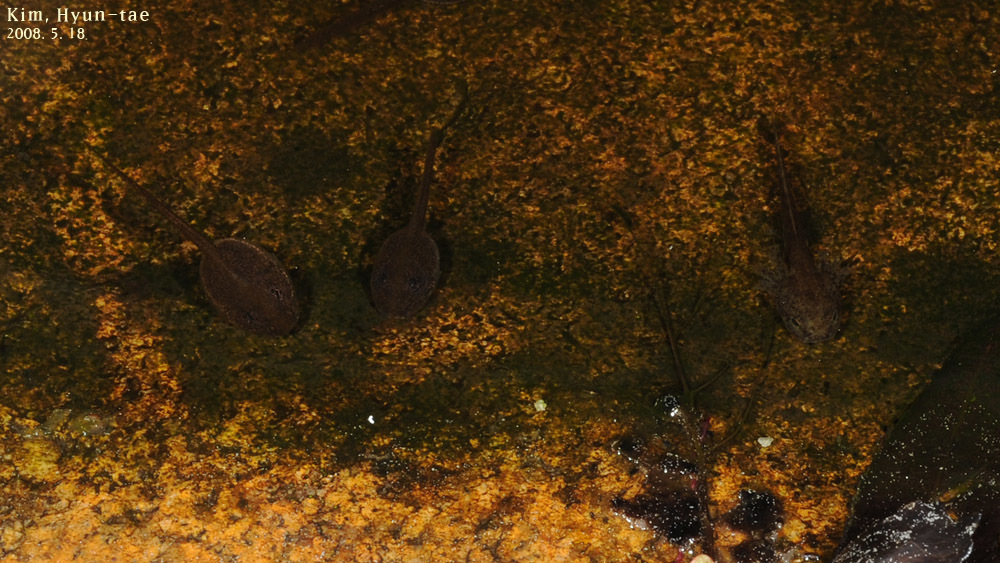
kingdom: Animalia
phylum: Chordata
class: Amphibia
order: Anura
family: Ranidae
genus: Rana
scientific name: Rana uenoi
